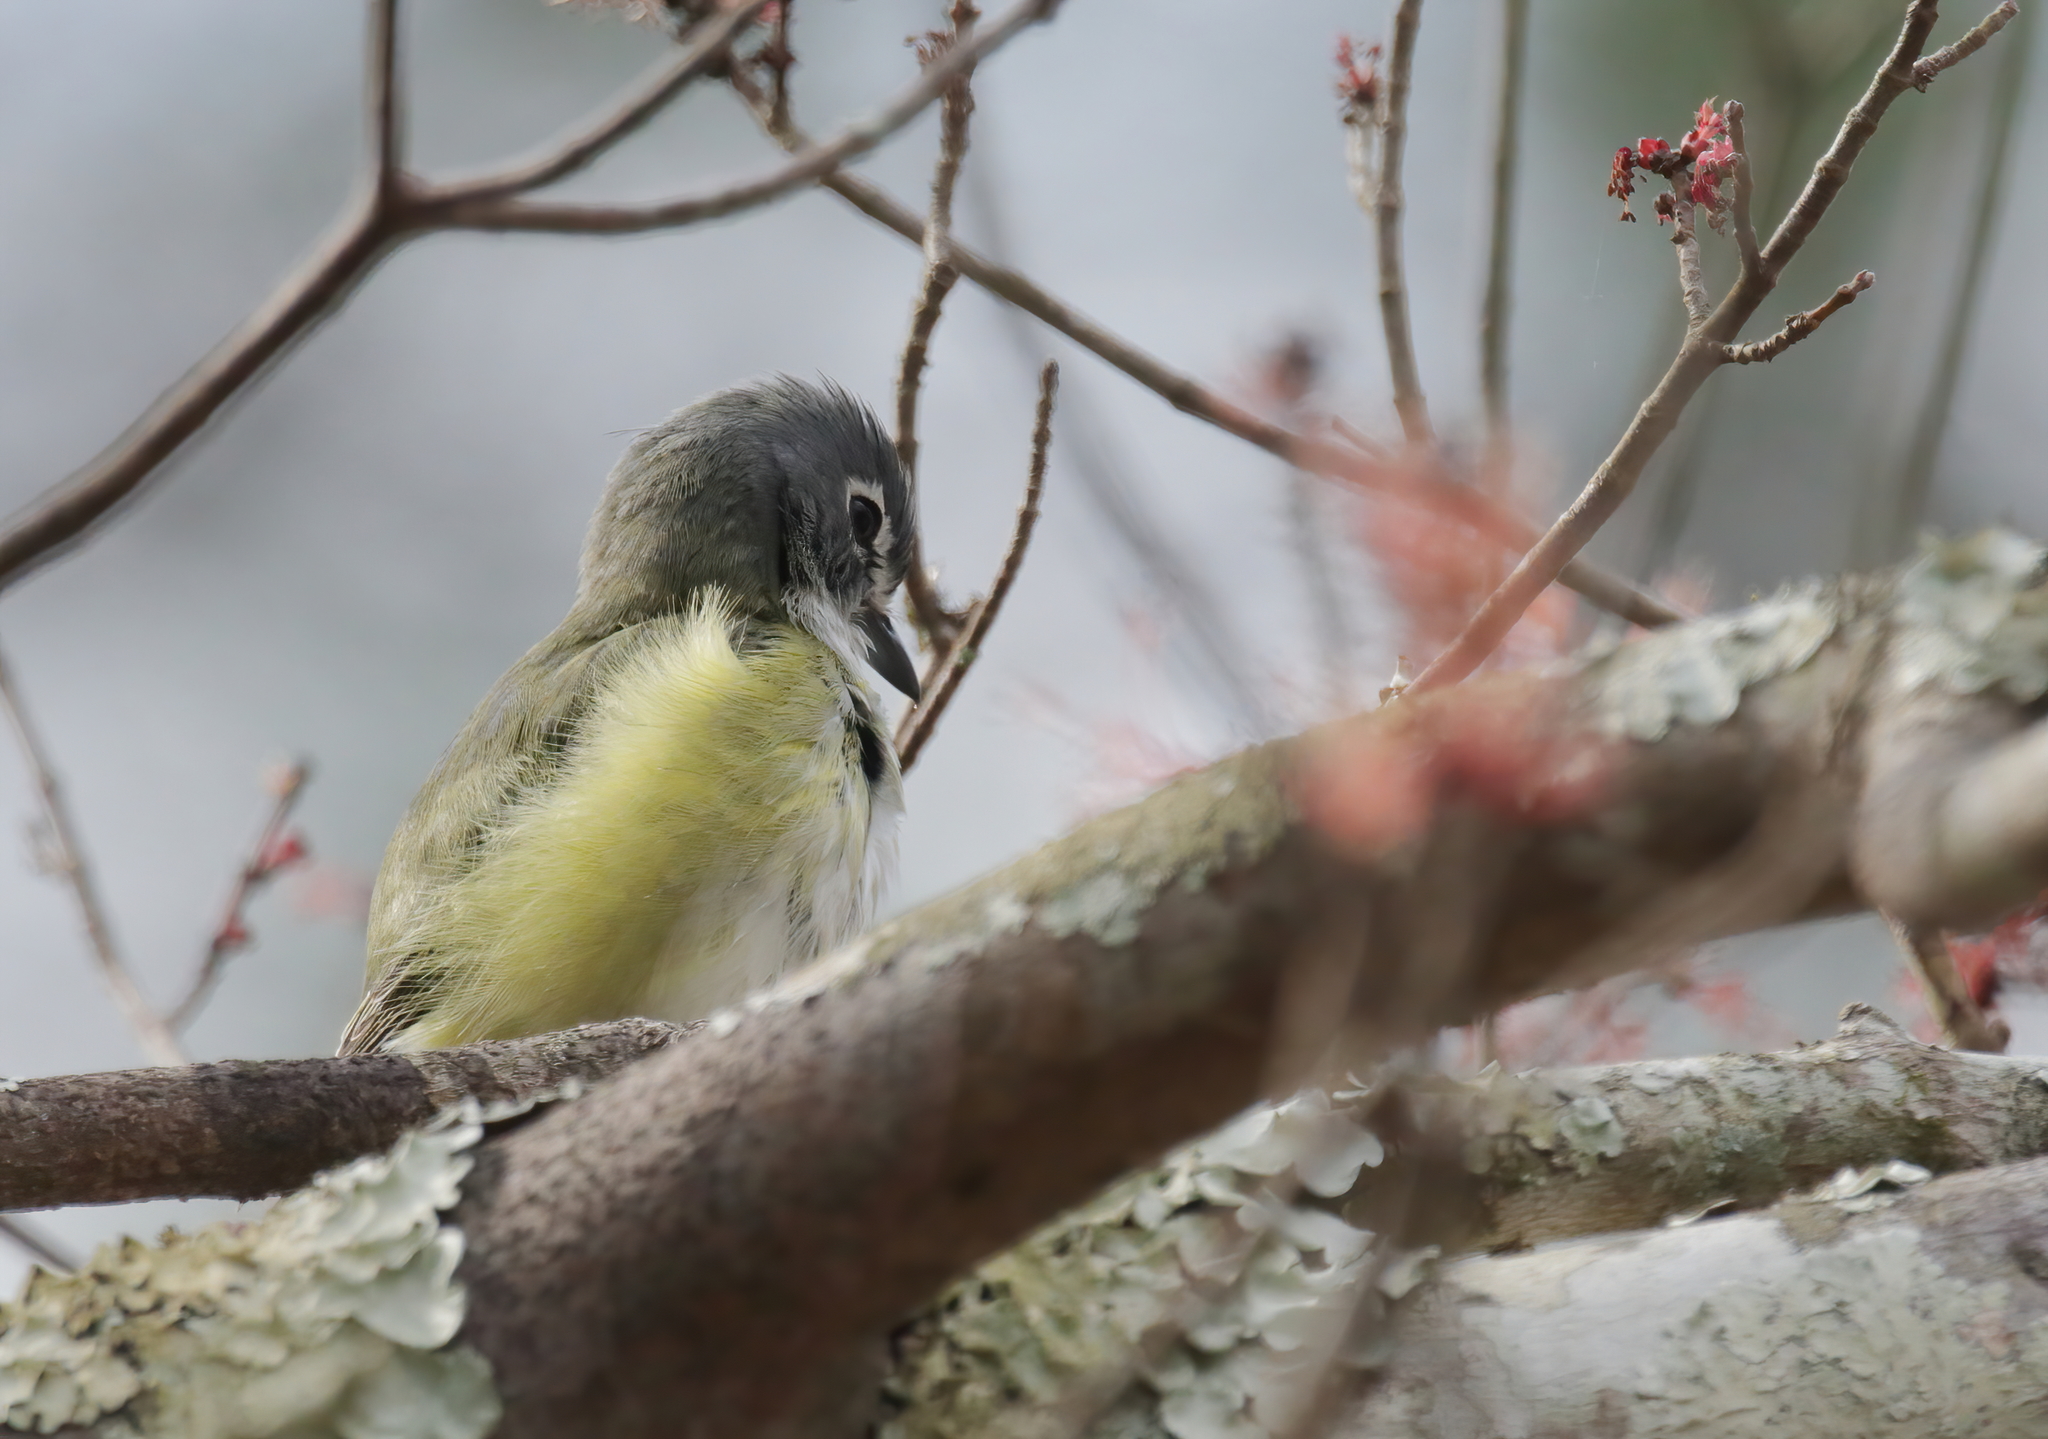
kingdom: Animalia
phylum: Chordata
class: Aves
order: Passeriformes
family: Vireonidae
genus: Vireo
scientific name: Vireo solitarius
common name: Blue-headed vireo
